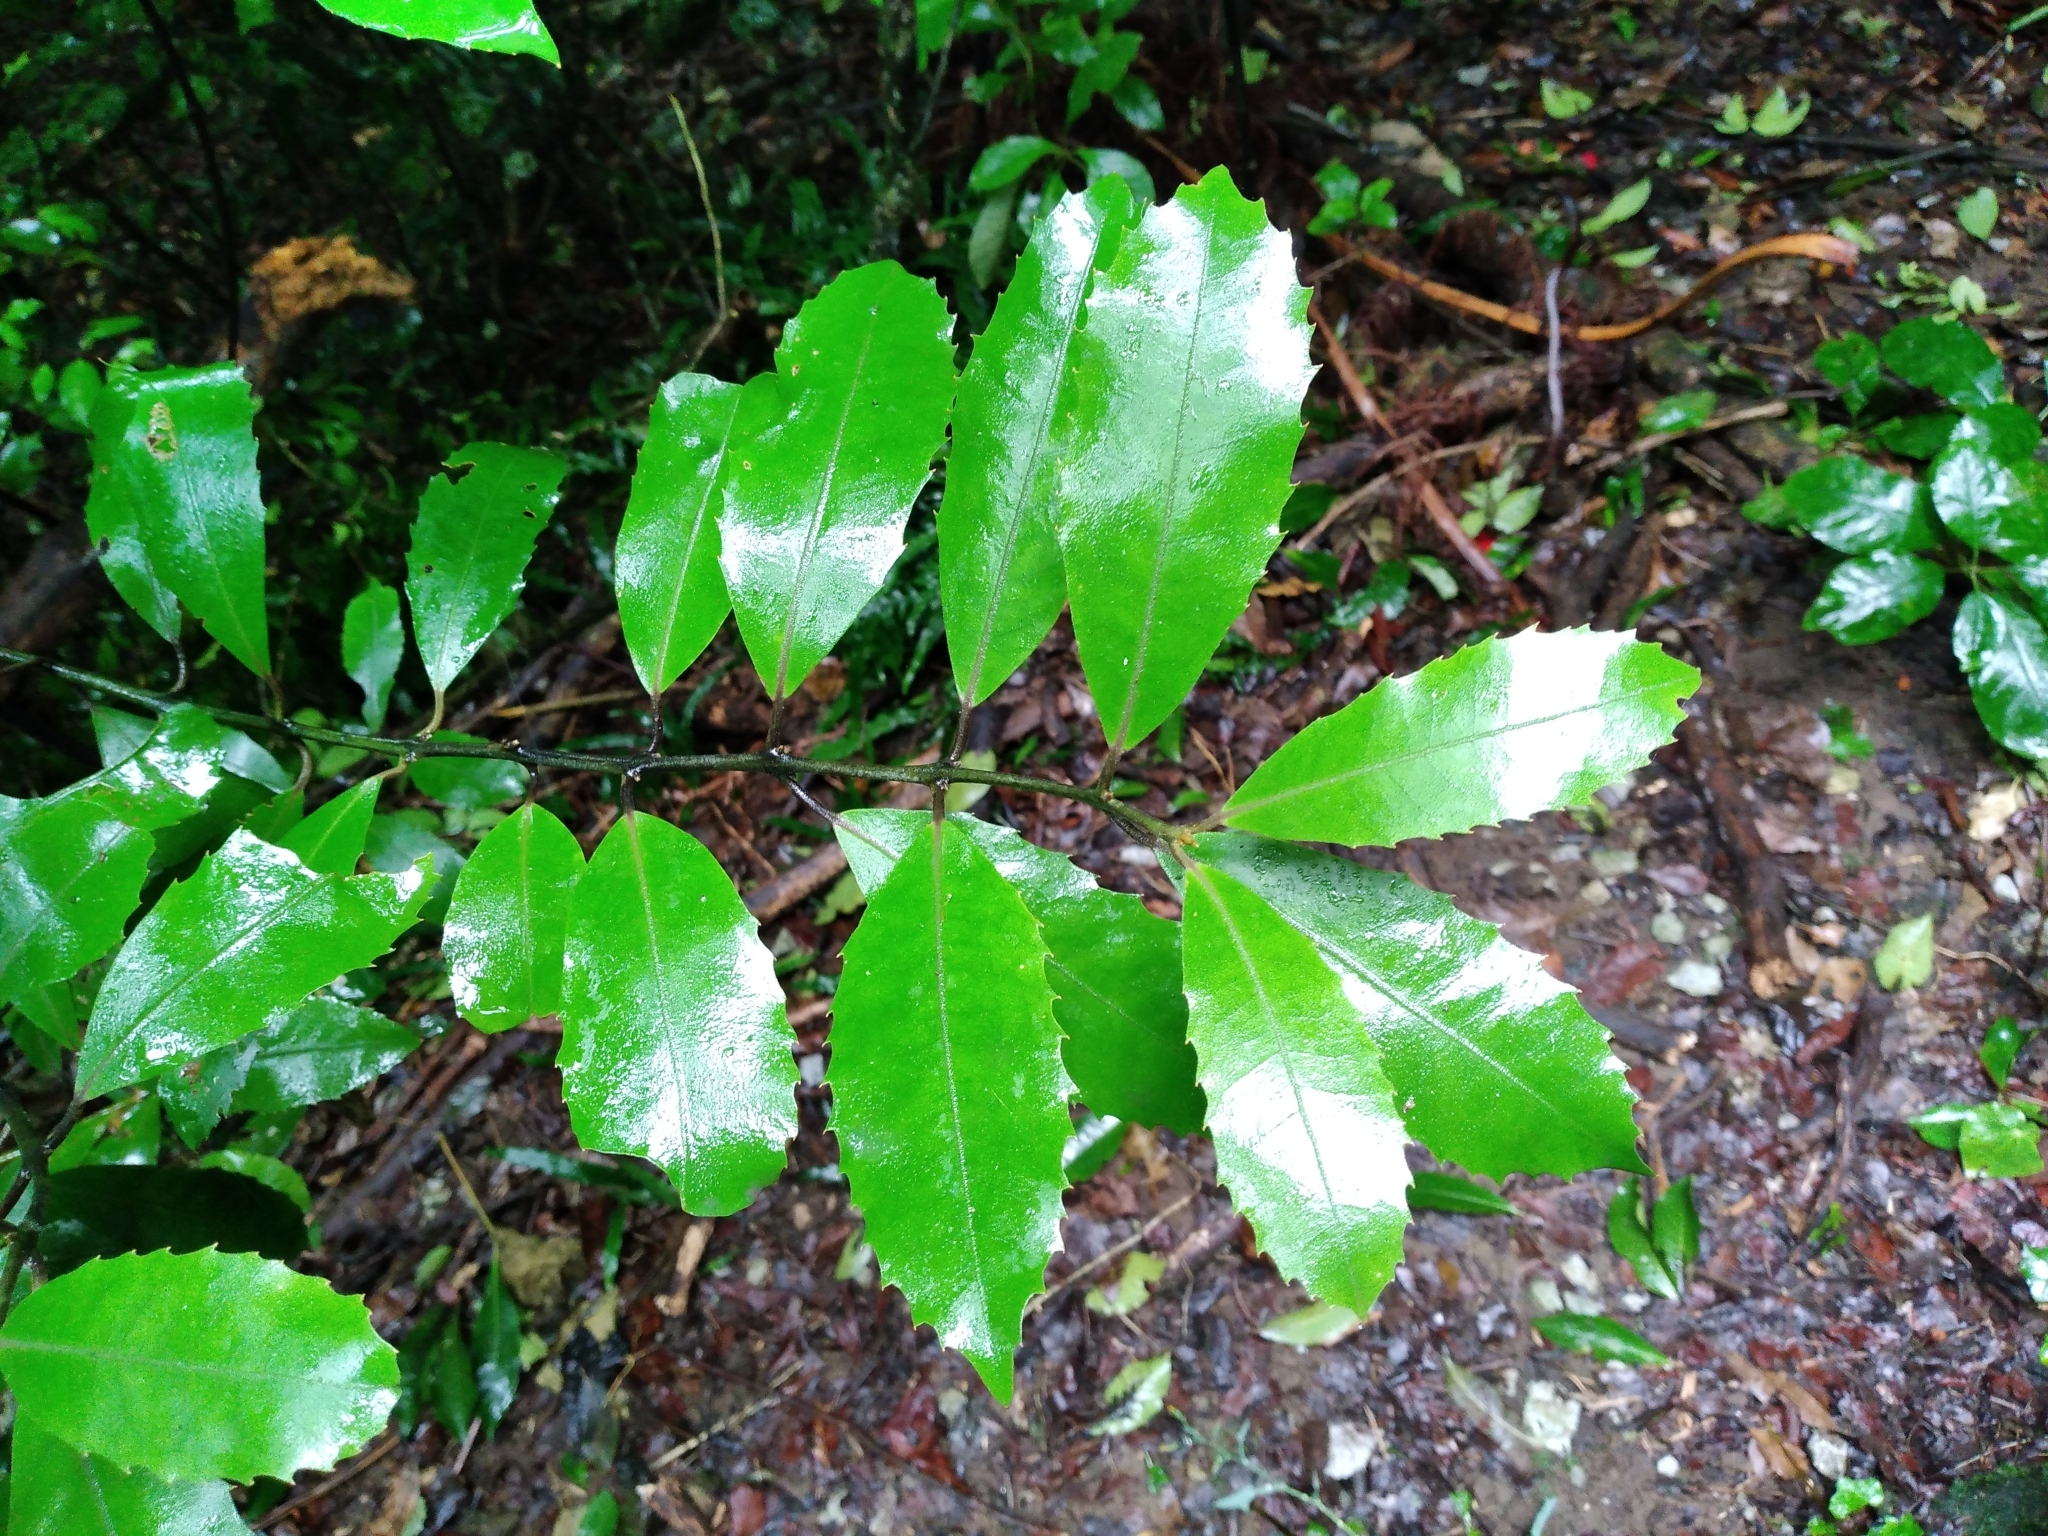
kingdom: Plantae
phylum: Tracheophyta
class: Magnoliopsida
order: Laurales
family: Monimiaceae
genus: Hedycarya
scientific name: Hedycarya arborea
